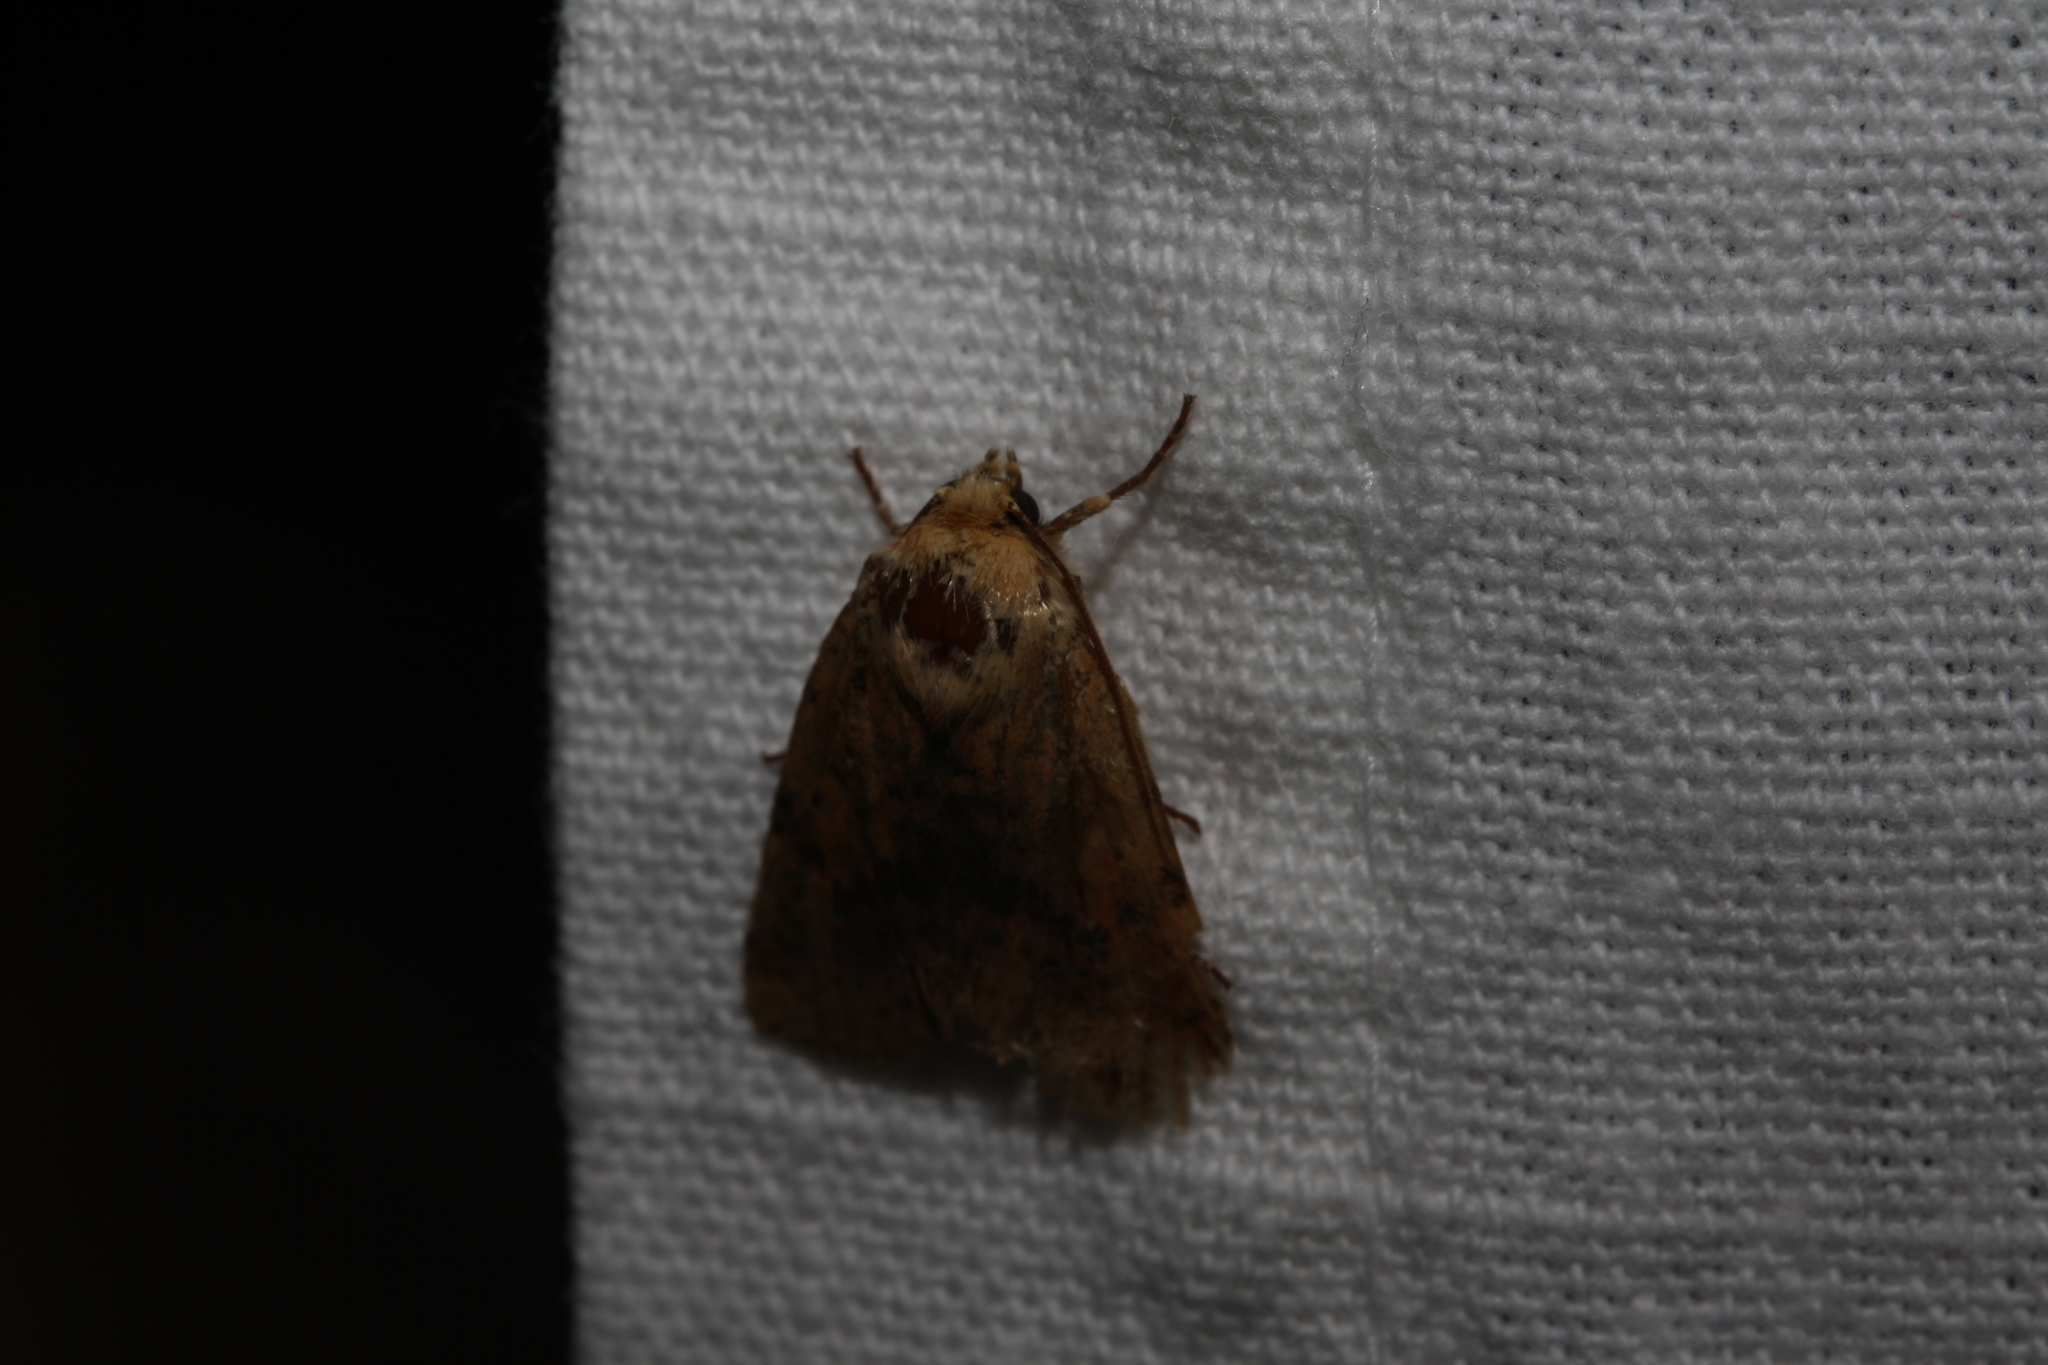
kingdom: Animalia
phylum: Arthropoda
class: Insecta
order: Lepidoptera
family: Noctuidae
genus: Conistra
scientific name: Conistra rubiginea
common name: Dotted chestnut
